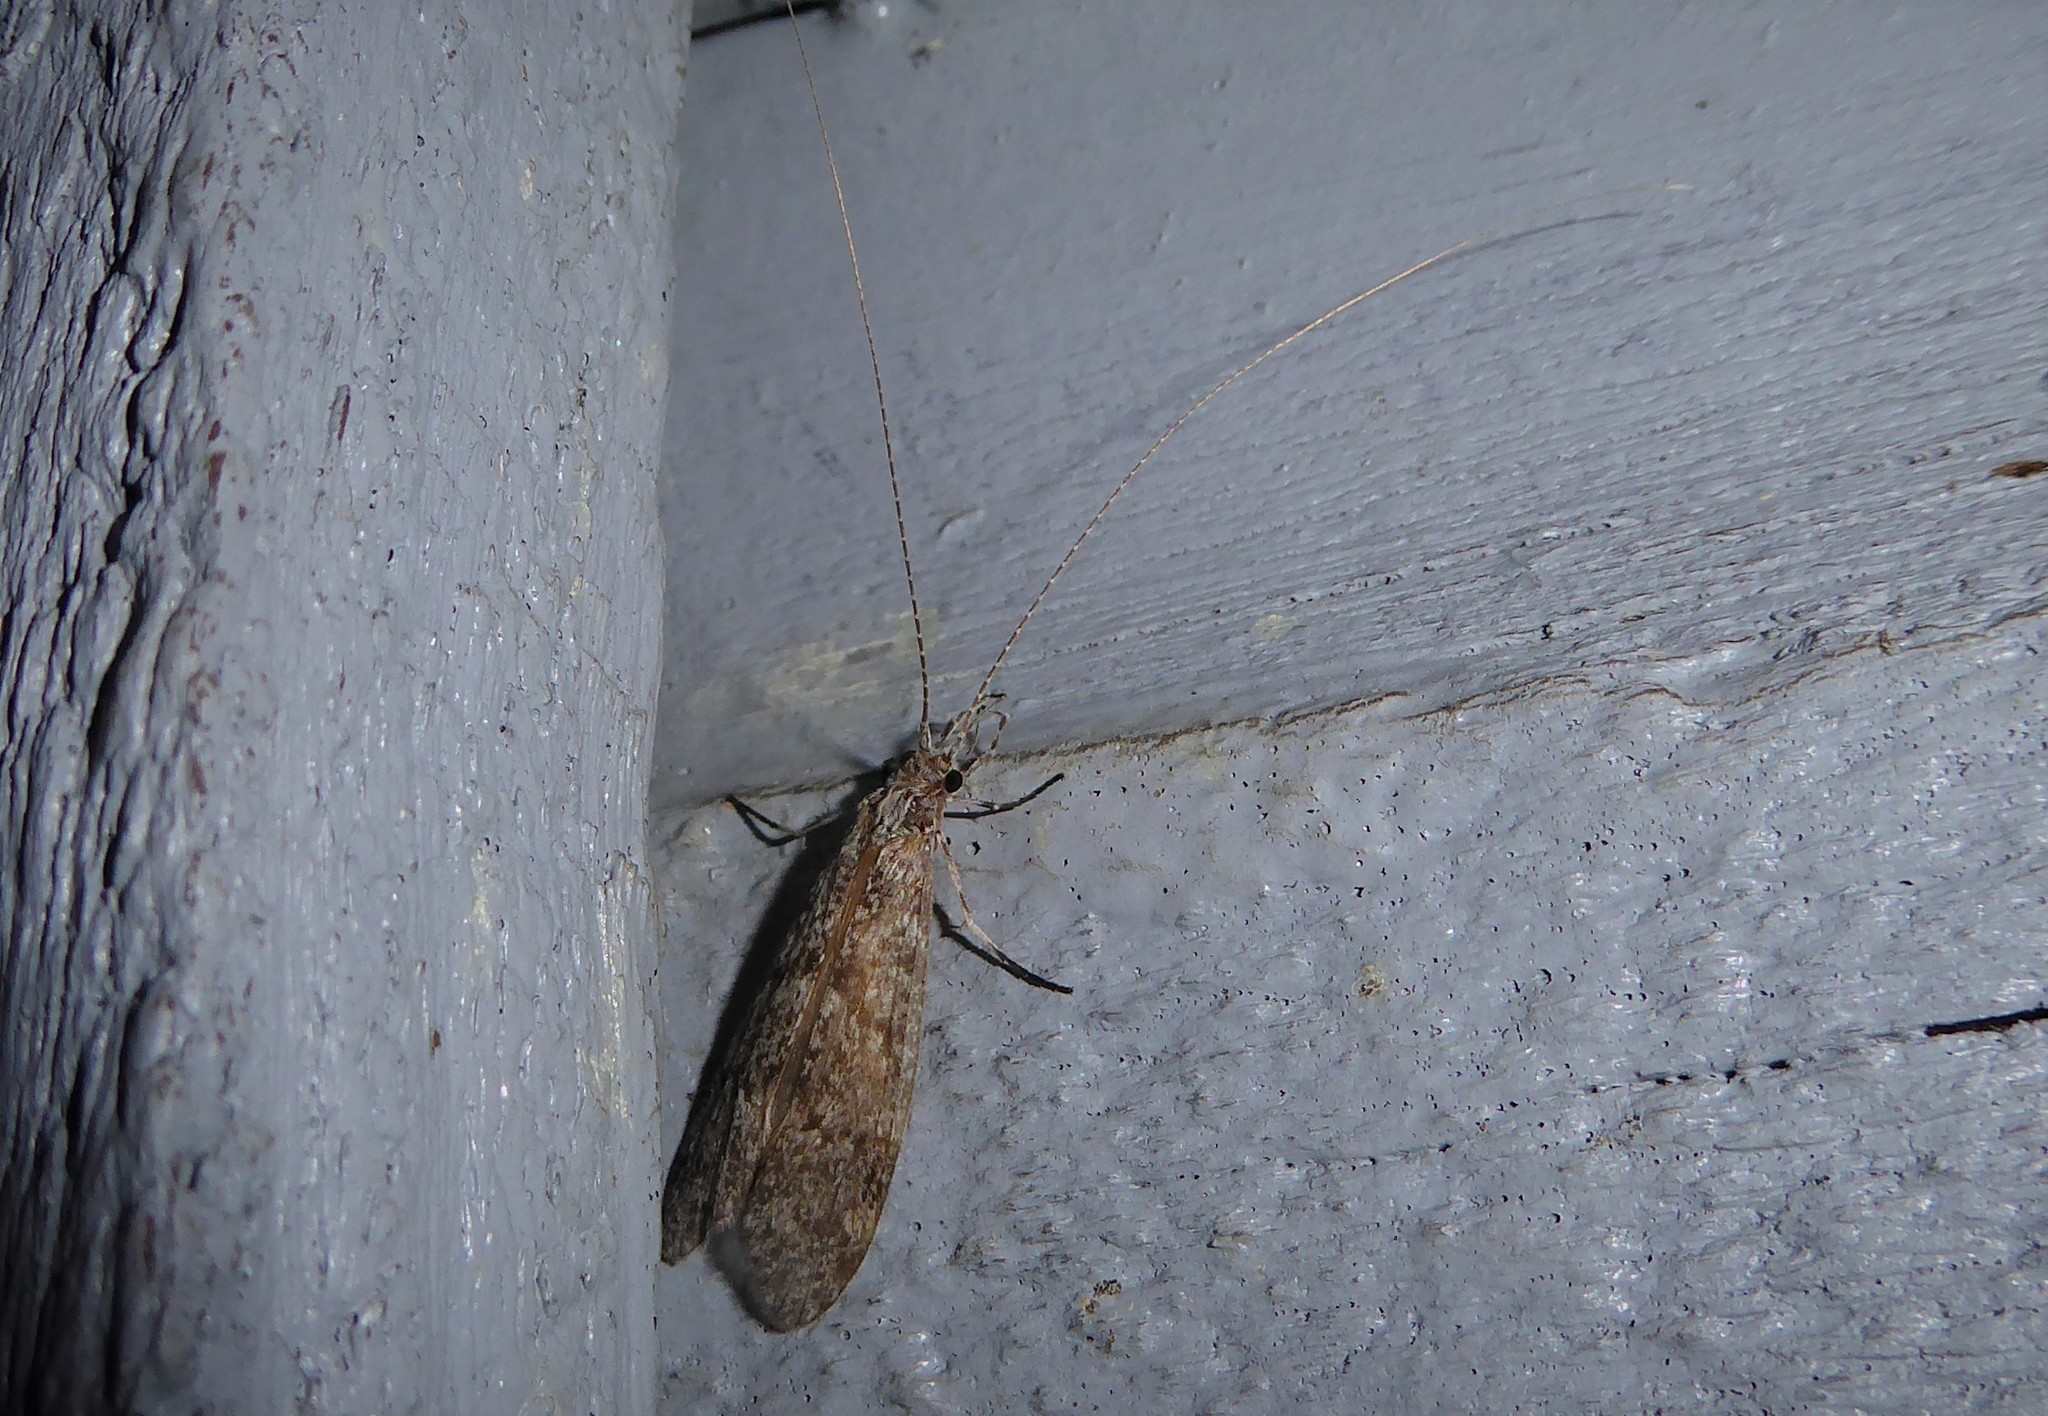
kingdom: Animalia
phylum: Arthropoda
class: Insecta
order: Trichoptera
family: Leptoceridae
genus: Triplectides
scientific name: Triplectides obsoletus
